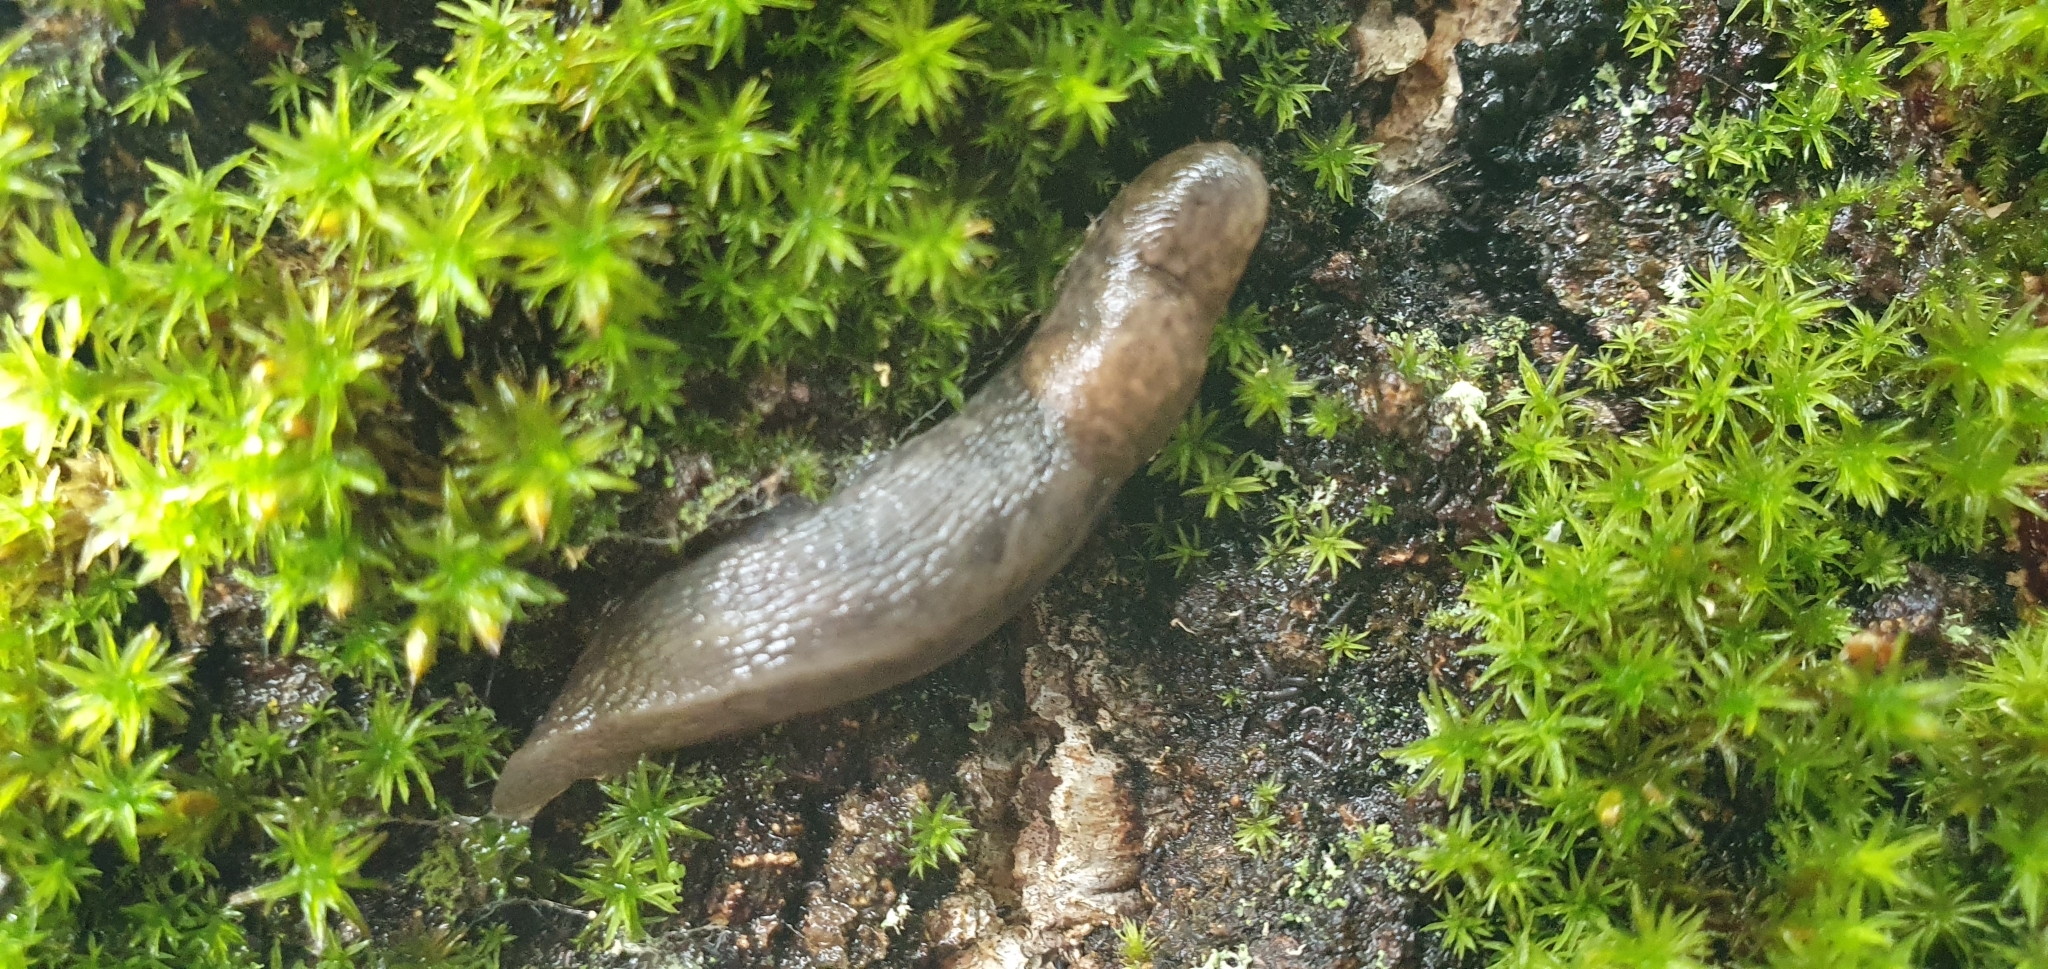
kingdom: Animalia
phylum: Mollusca
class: Gastropoda
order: Stylommatophora
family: Agriolimacidae
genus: Deroceras
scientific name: Deroceras reticulatum
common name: Gray field slug
